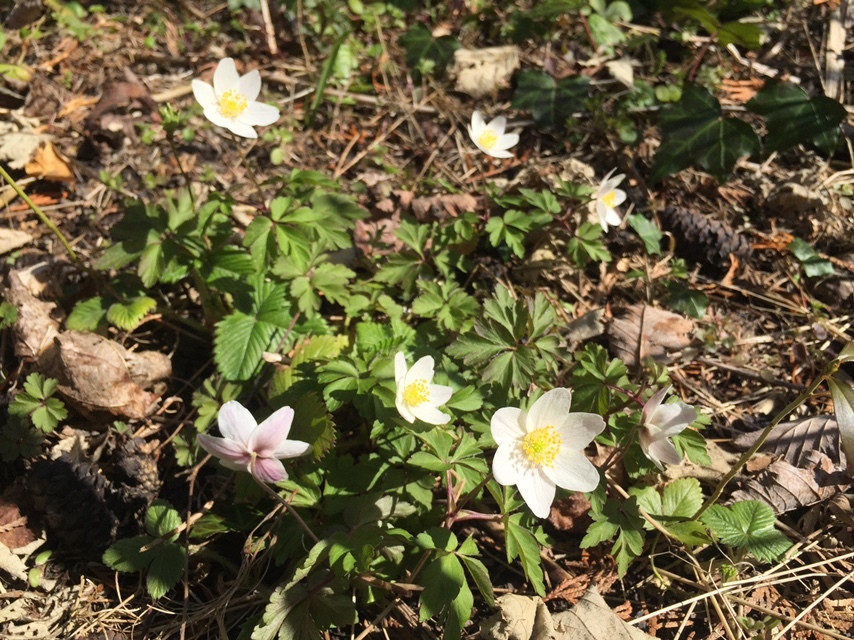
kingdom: Plantae
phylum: Tracheophyta
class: Magnoliopsida
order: Ranunculales
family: Ranunculaceae
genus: Anemone
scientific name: Anemone nemorosa
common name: Wood anemone
